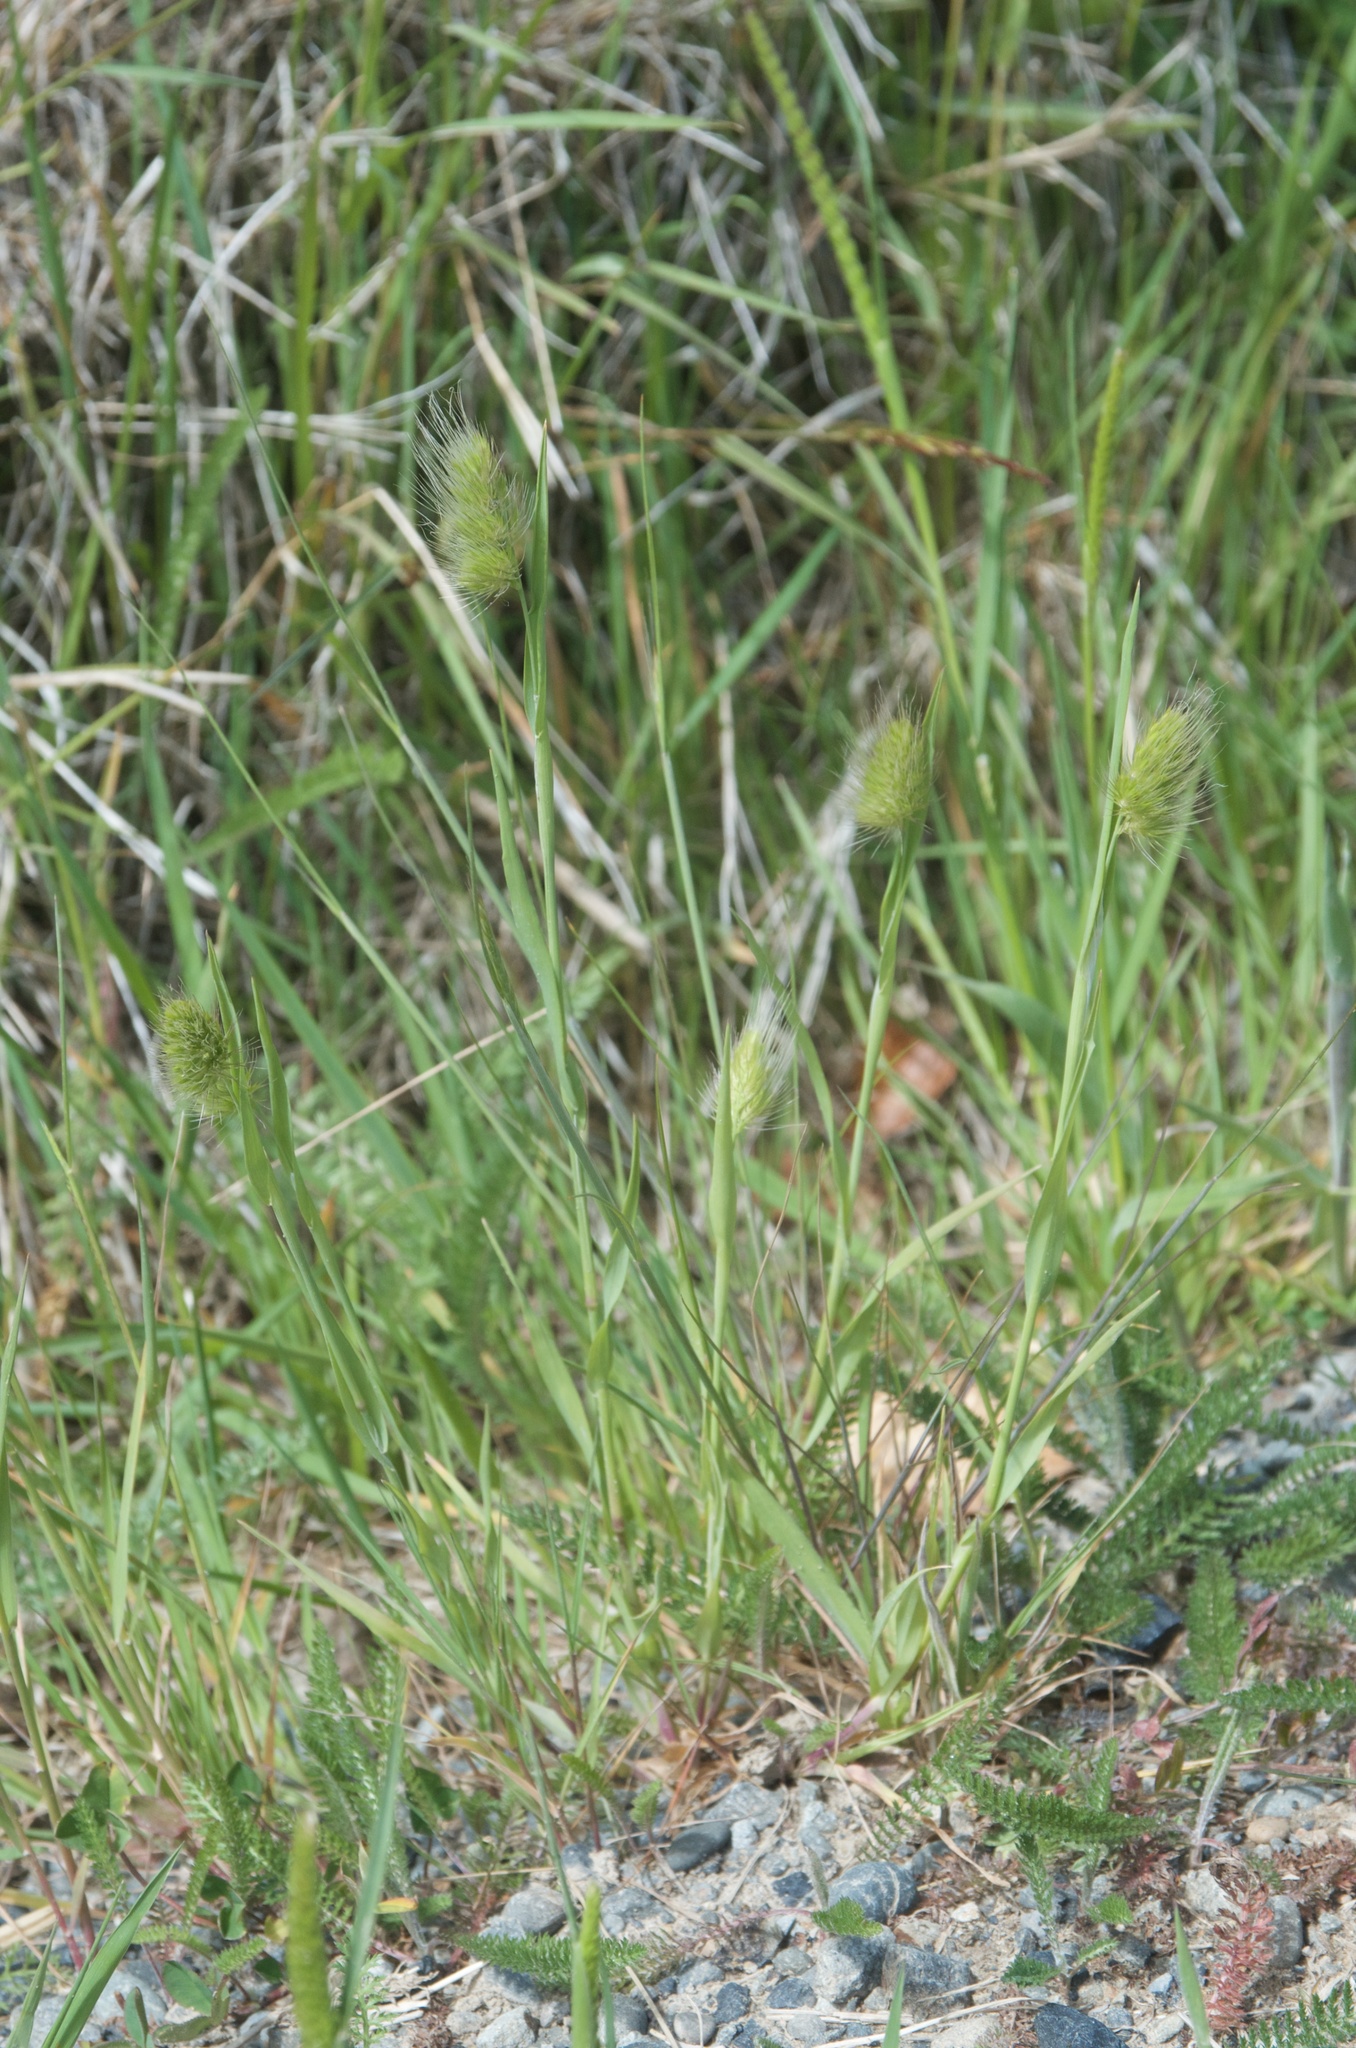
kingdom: Plantae
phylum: Tracheophyta
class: Liliopsida
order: Poales
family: Poaceae
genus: Cynosurus
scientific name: Cynosurus echinatus
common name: Rough dog's-tail
